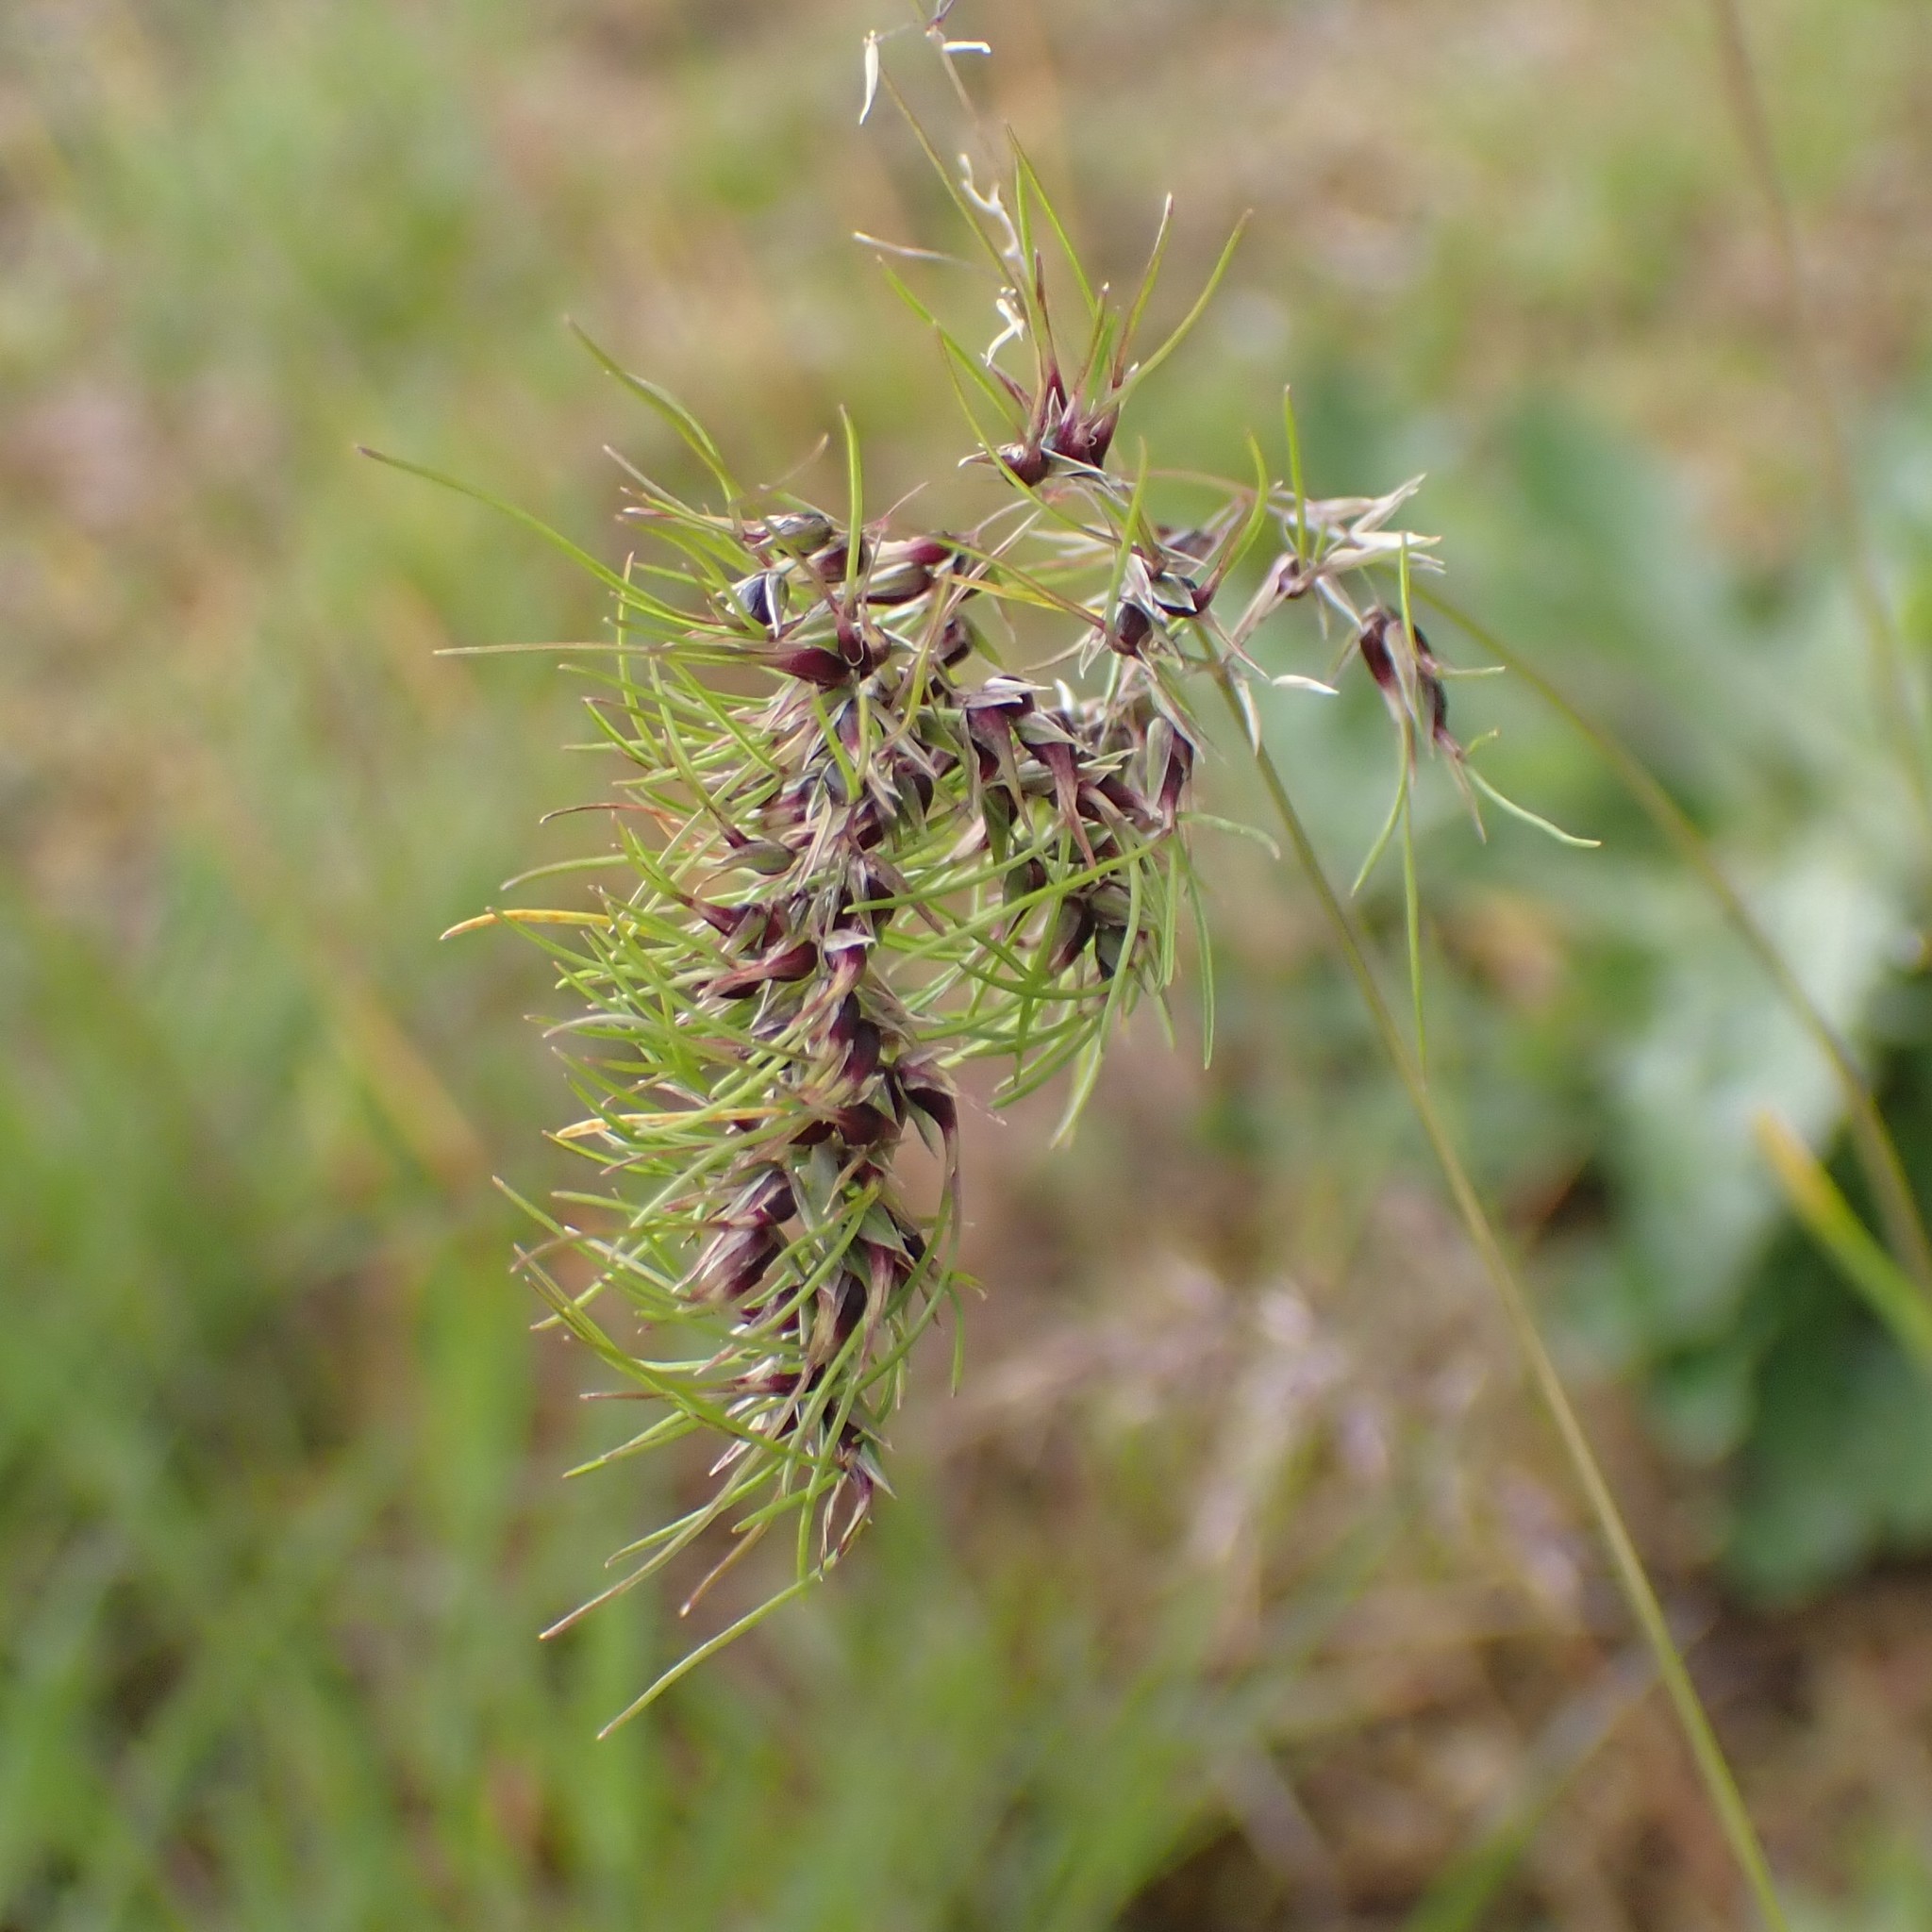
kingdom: Plantae
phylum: Tracheophyta
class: Liliopsida
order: Poales
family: Poaceae
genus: Poa
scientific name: Poa bulbosa
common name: Bulbous bluegrass
